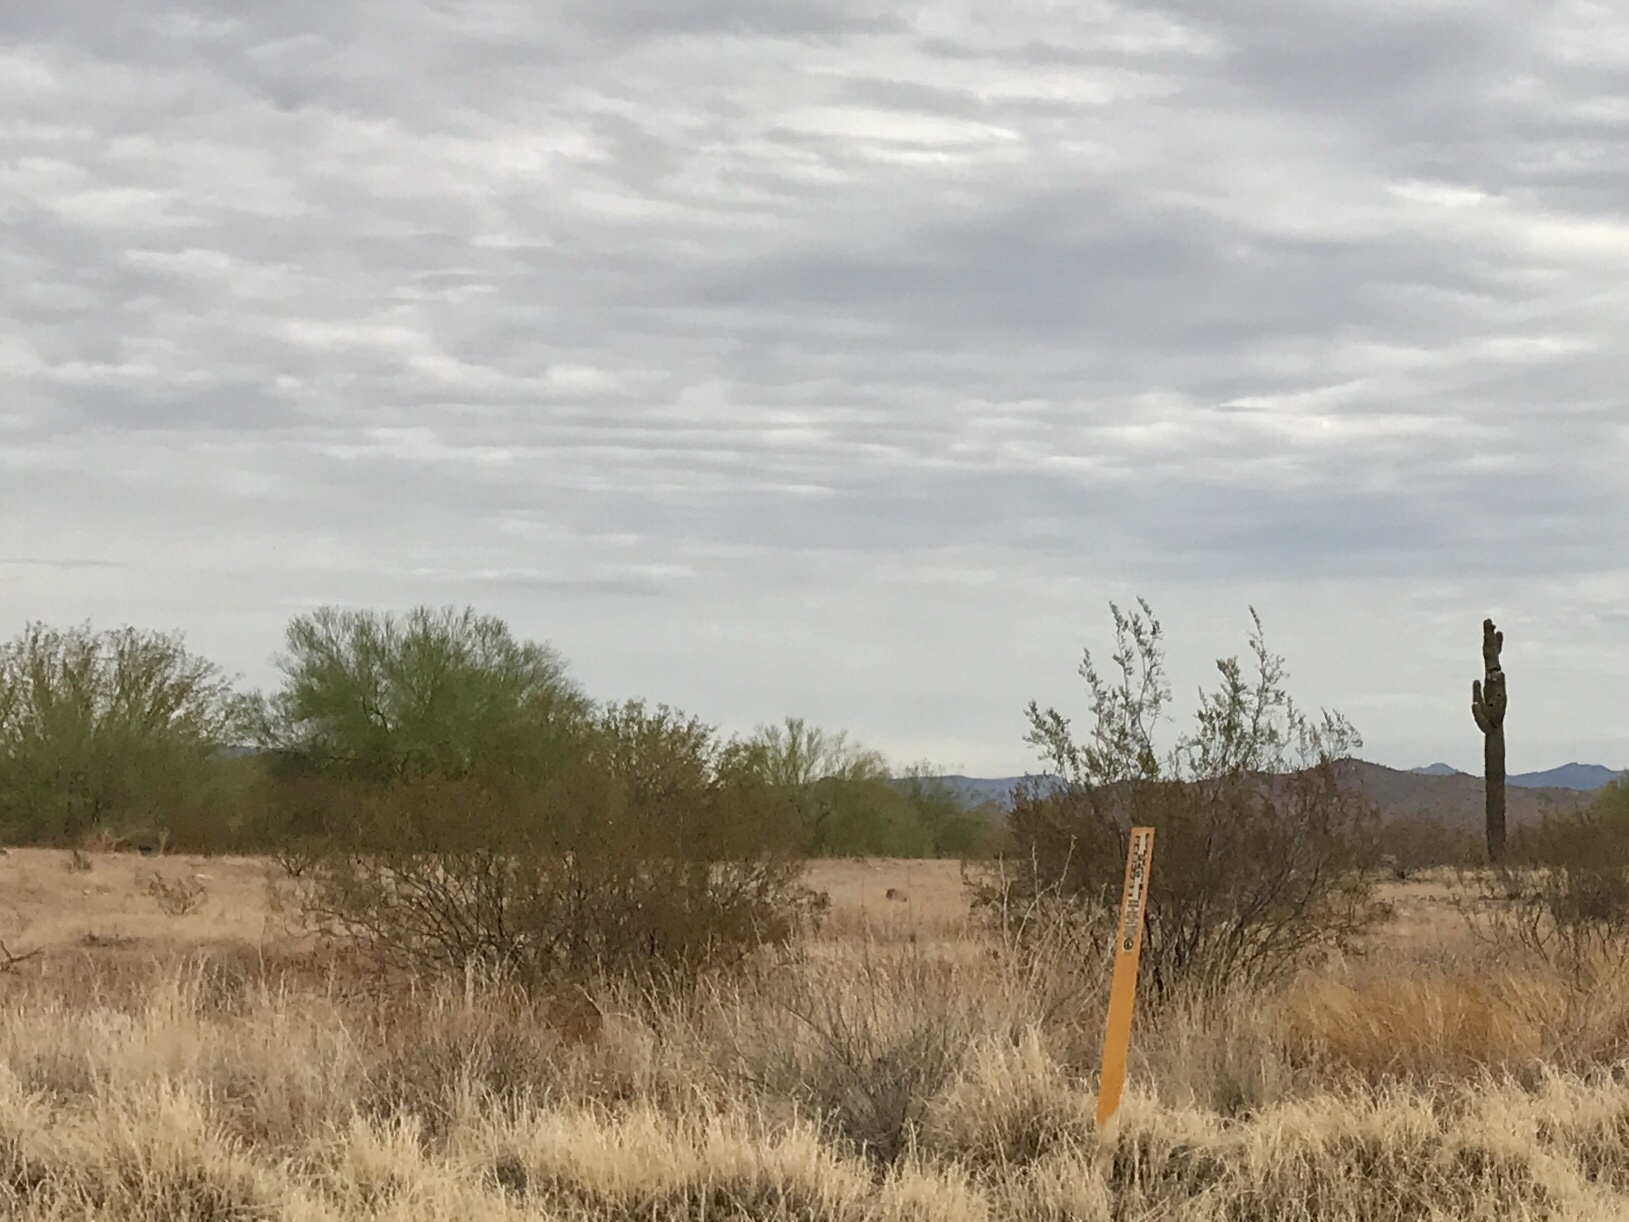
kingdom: Plantae
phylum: Tracheophyta
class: Magnoliopsida
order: Zygophyllales
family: Zygophyllaceae
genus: Larrea
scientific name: Larrea tridentata
